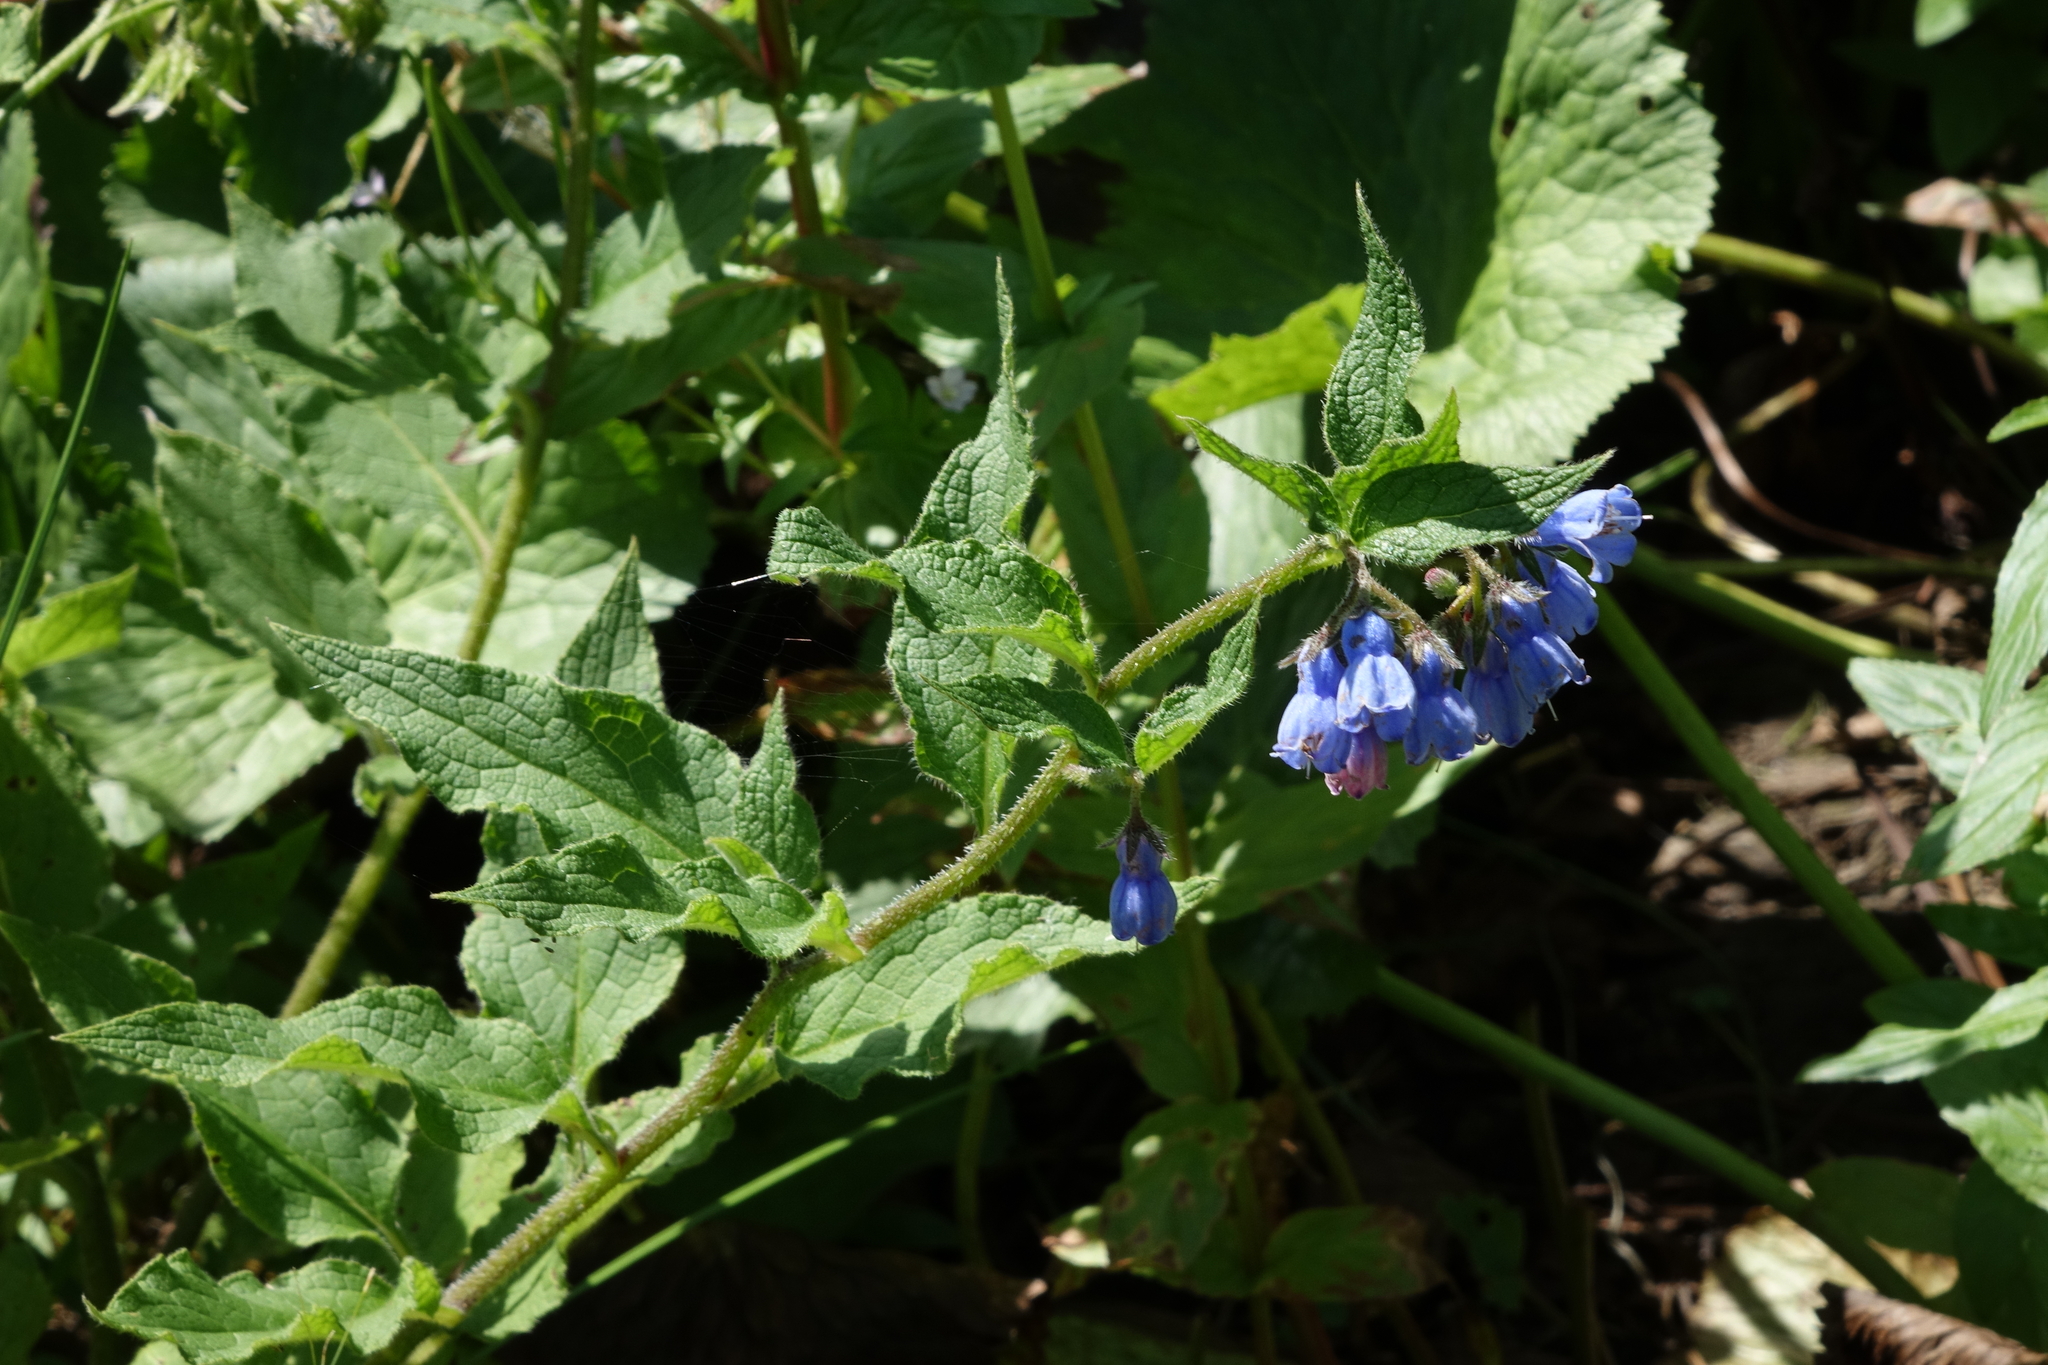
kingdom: Plantae
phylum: Tracheophyta
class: Magnoliopsida
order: Boraginales
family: Boraginaceae
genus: Symphytum
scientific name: Symphytum asperum
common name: Prickly comfrey
